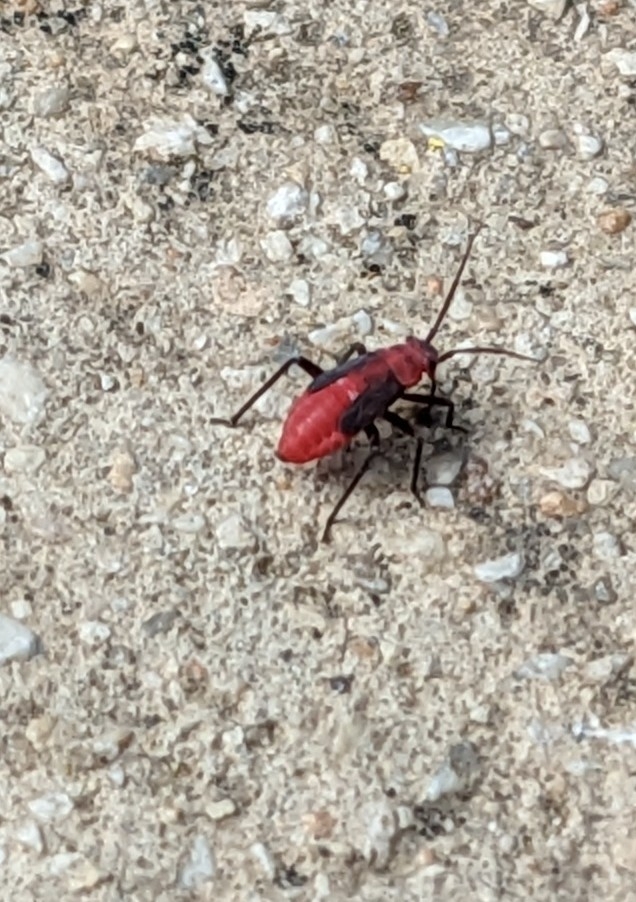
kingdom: Animalia
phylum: Arthropoda
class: Insecta
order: Hemiptera
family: Miridae
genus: Lopidea
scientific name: Lopidea major
